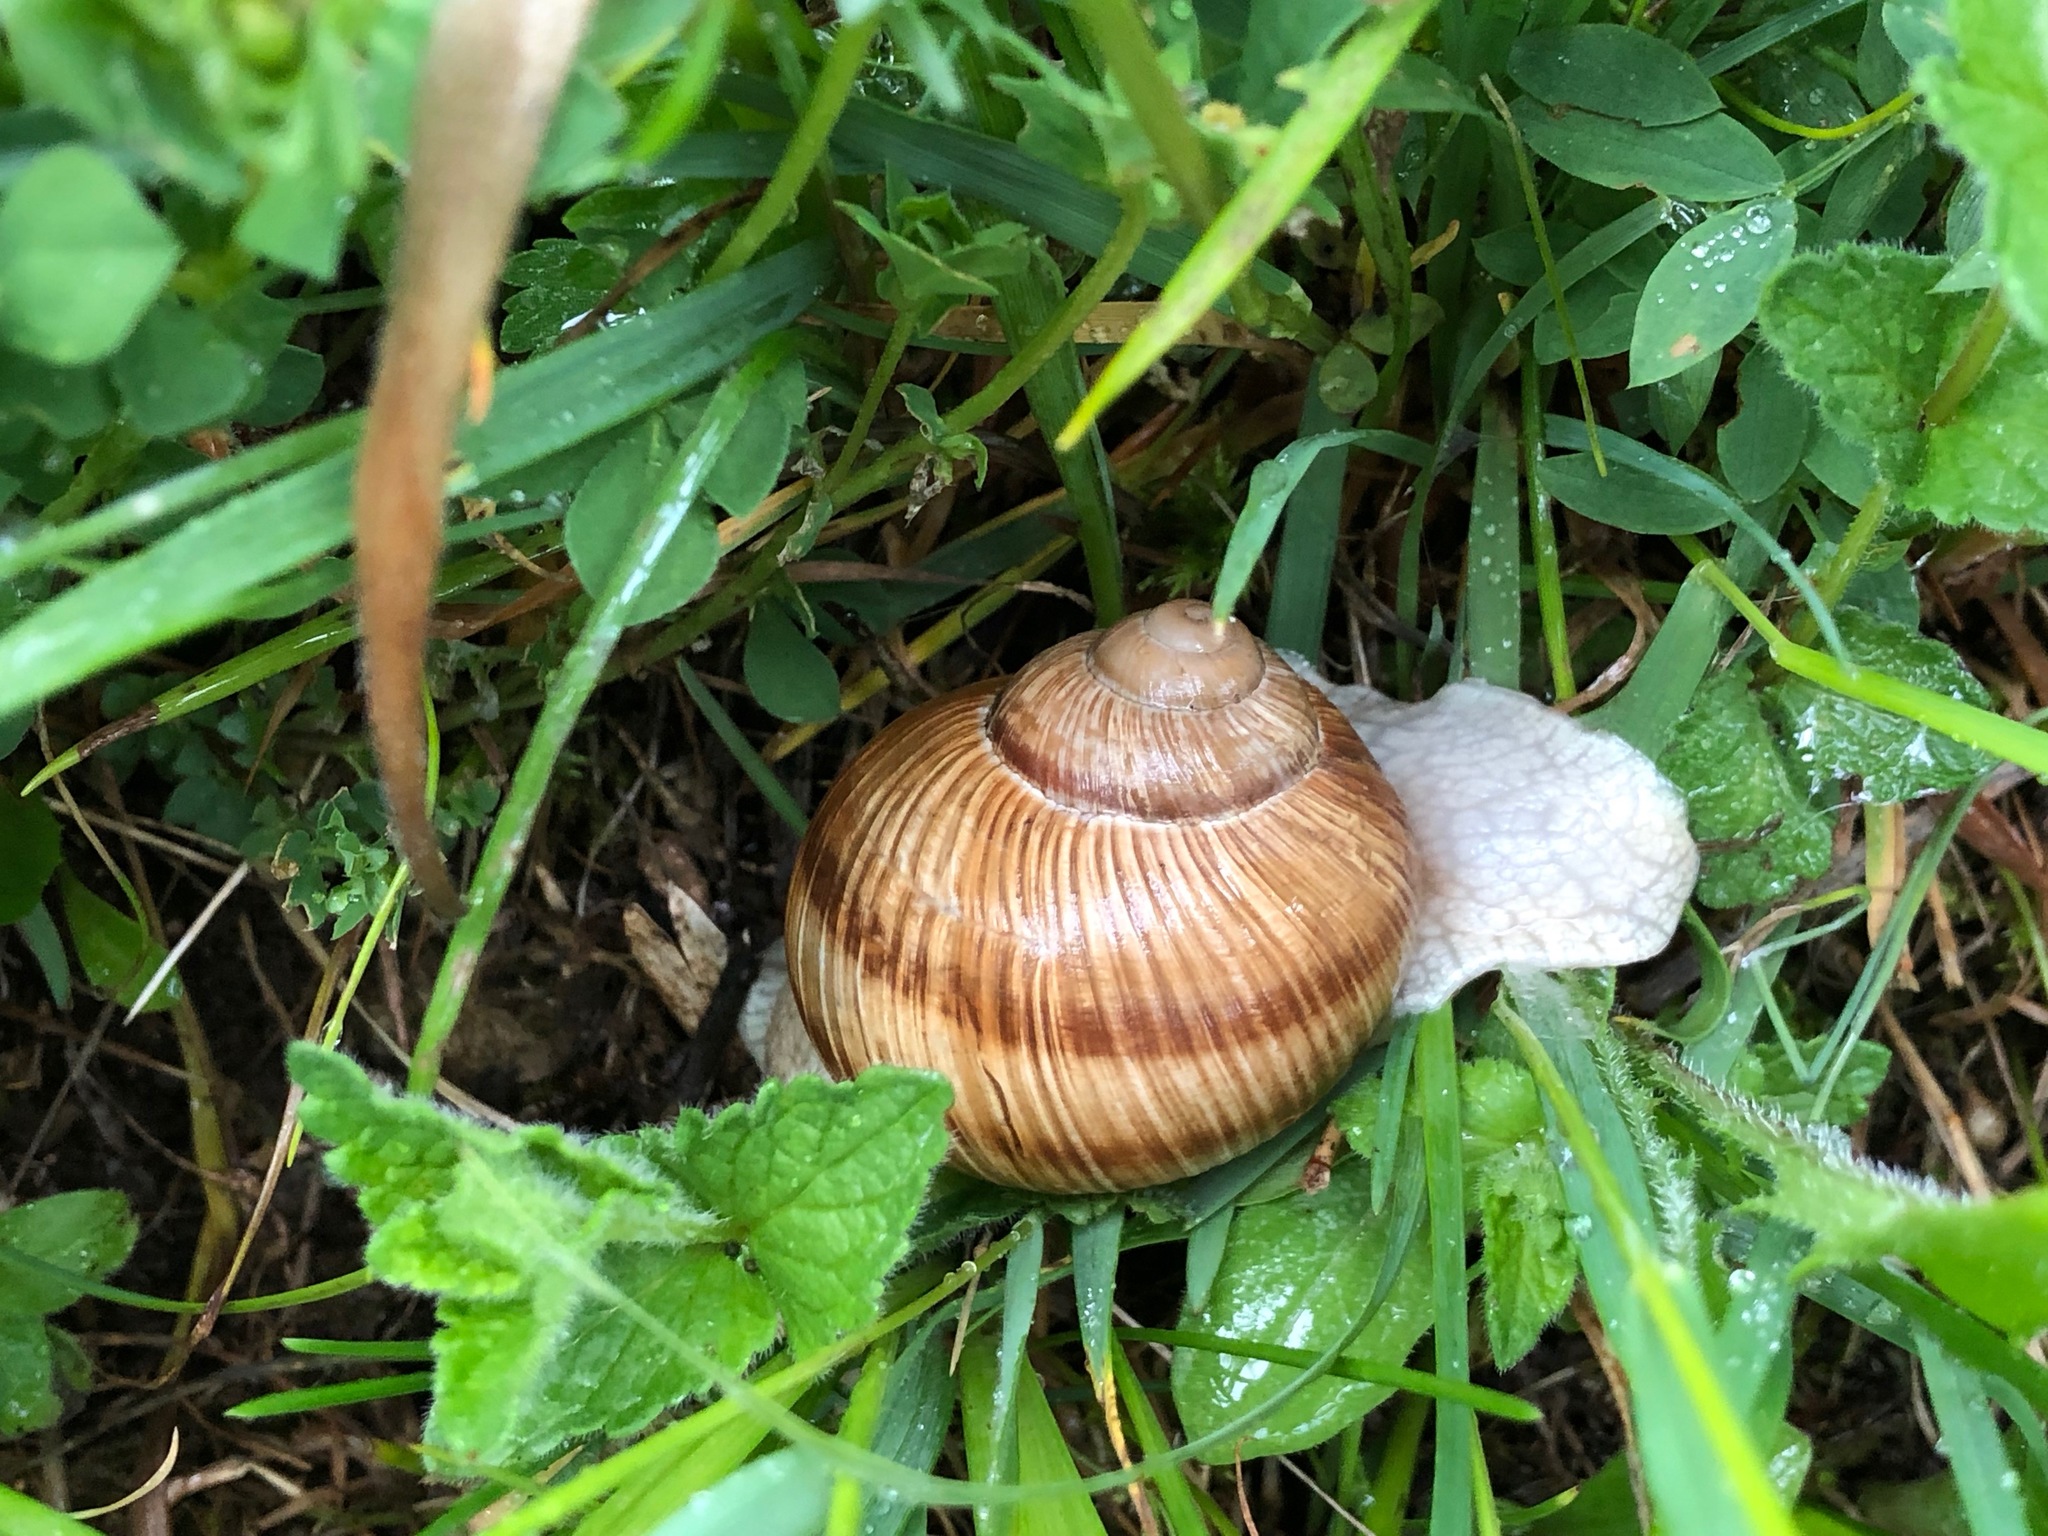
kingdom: Animalia
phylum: Mollusca
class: Gastropoda
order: Stylommatophora
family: Helicidae
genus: Helix
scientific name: Helix pomatia
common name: Roman snail
